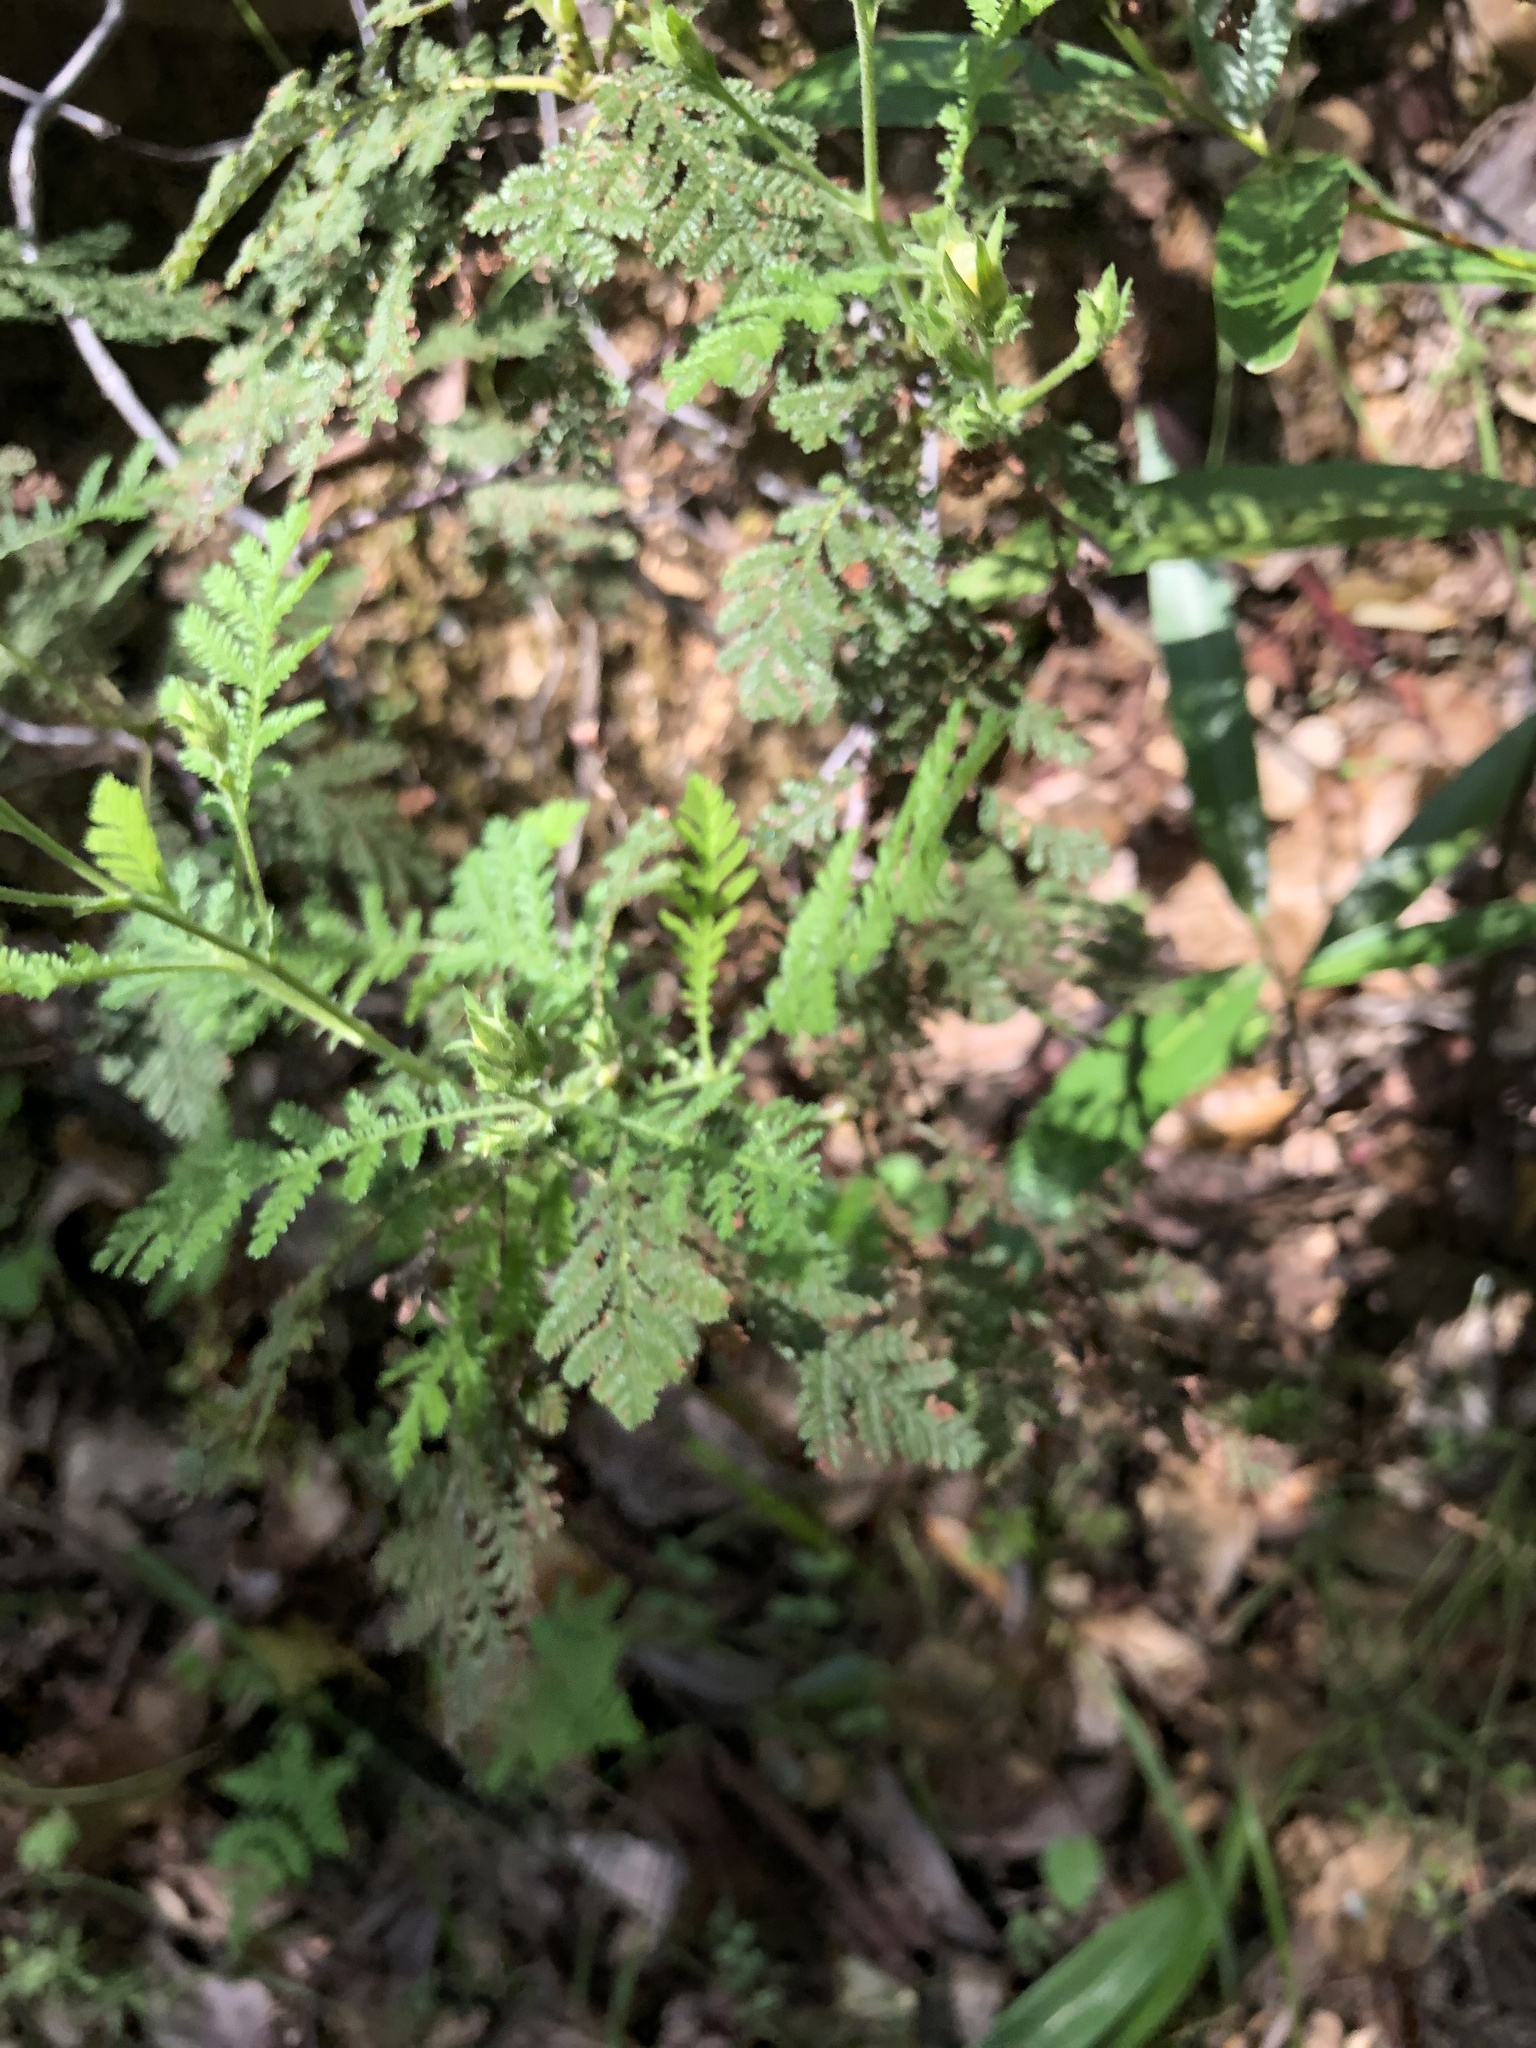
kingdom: Plantae
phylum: Tracheophyta
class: Magnoliopsida
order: Rosales
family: Rosaceae
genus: Chamaebatia
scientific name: Chamaebatia foliolosa
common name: Mountain misery
